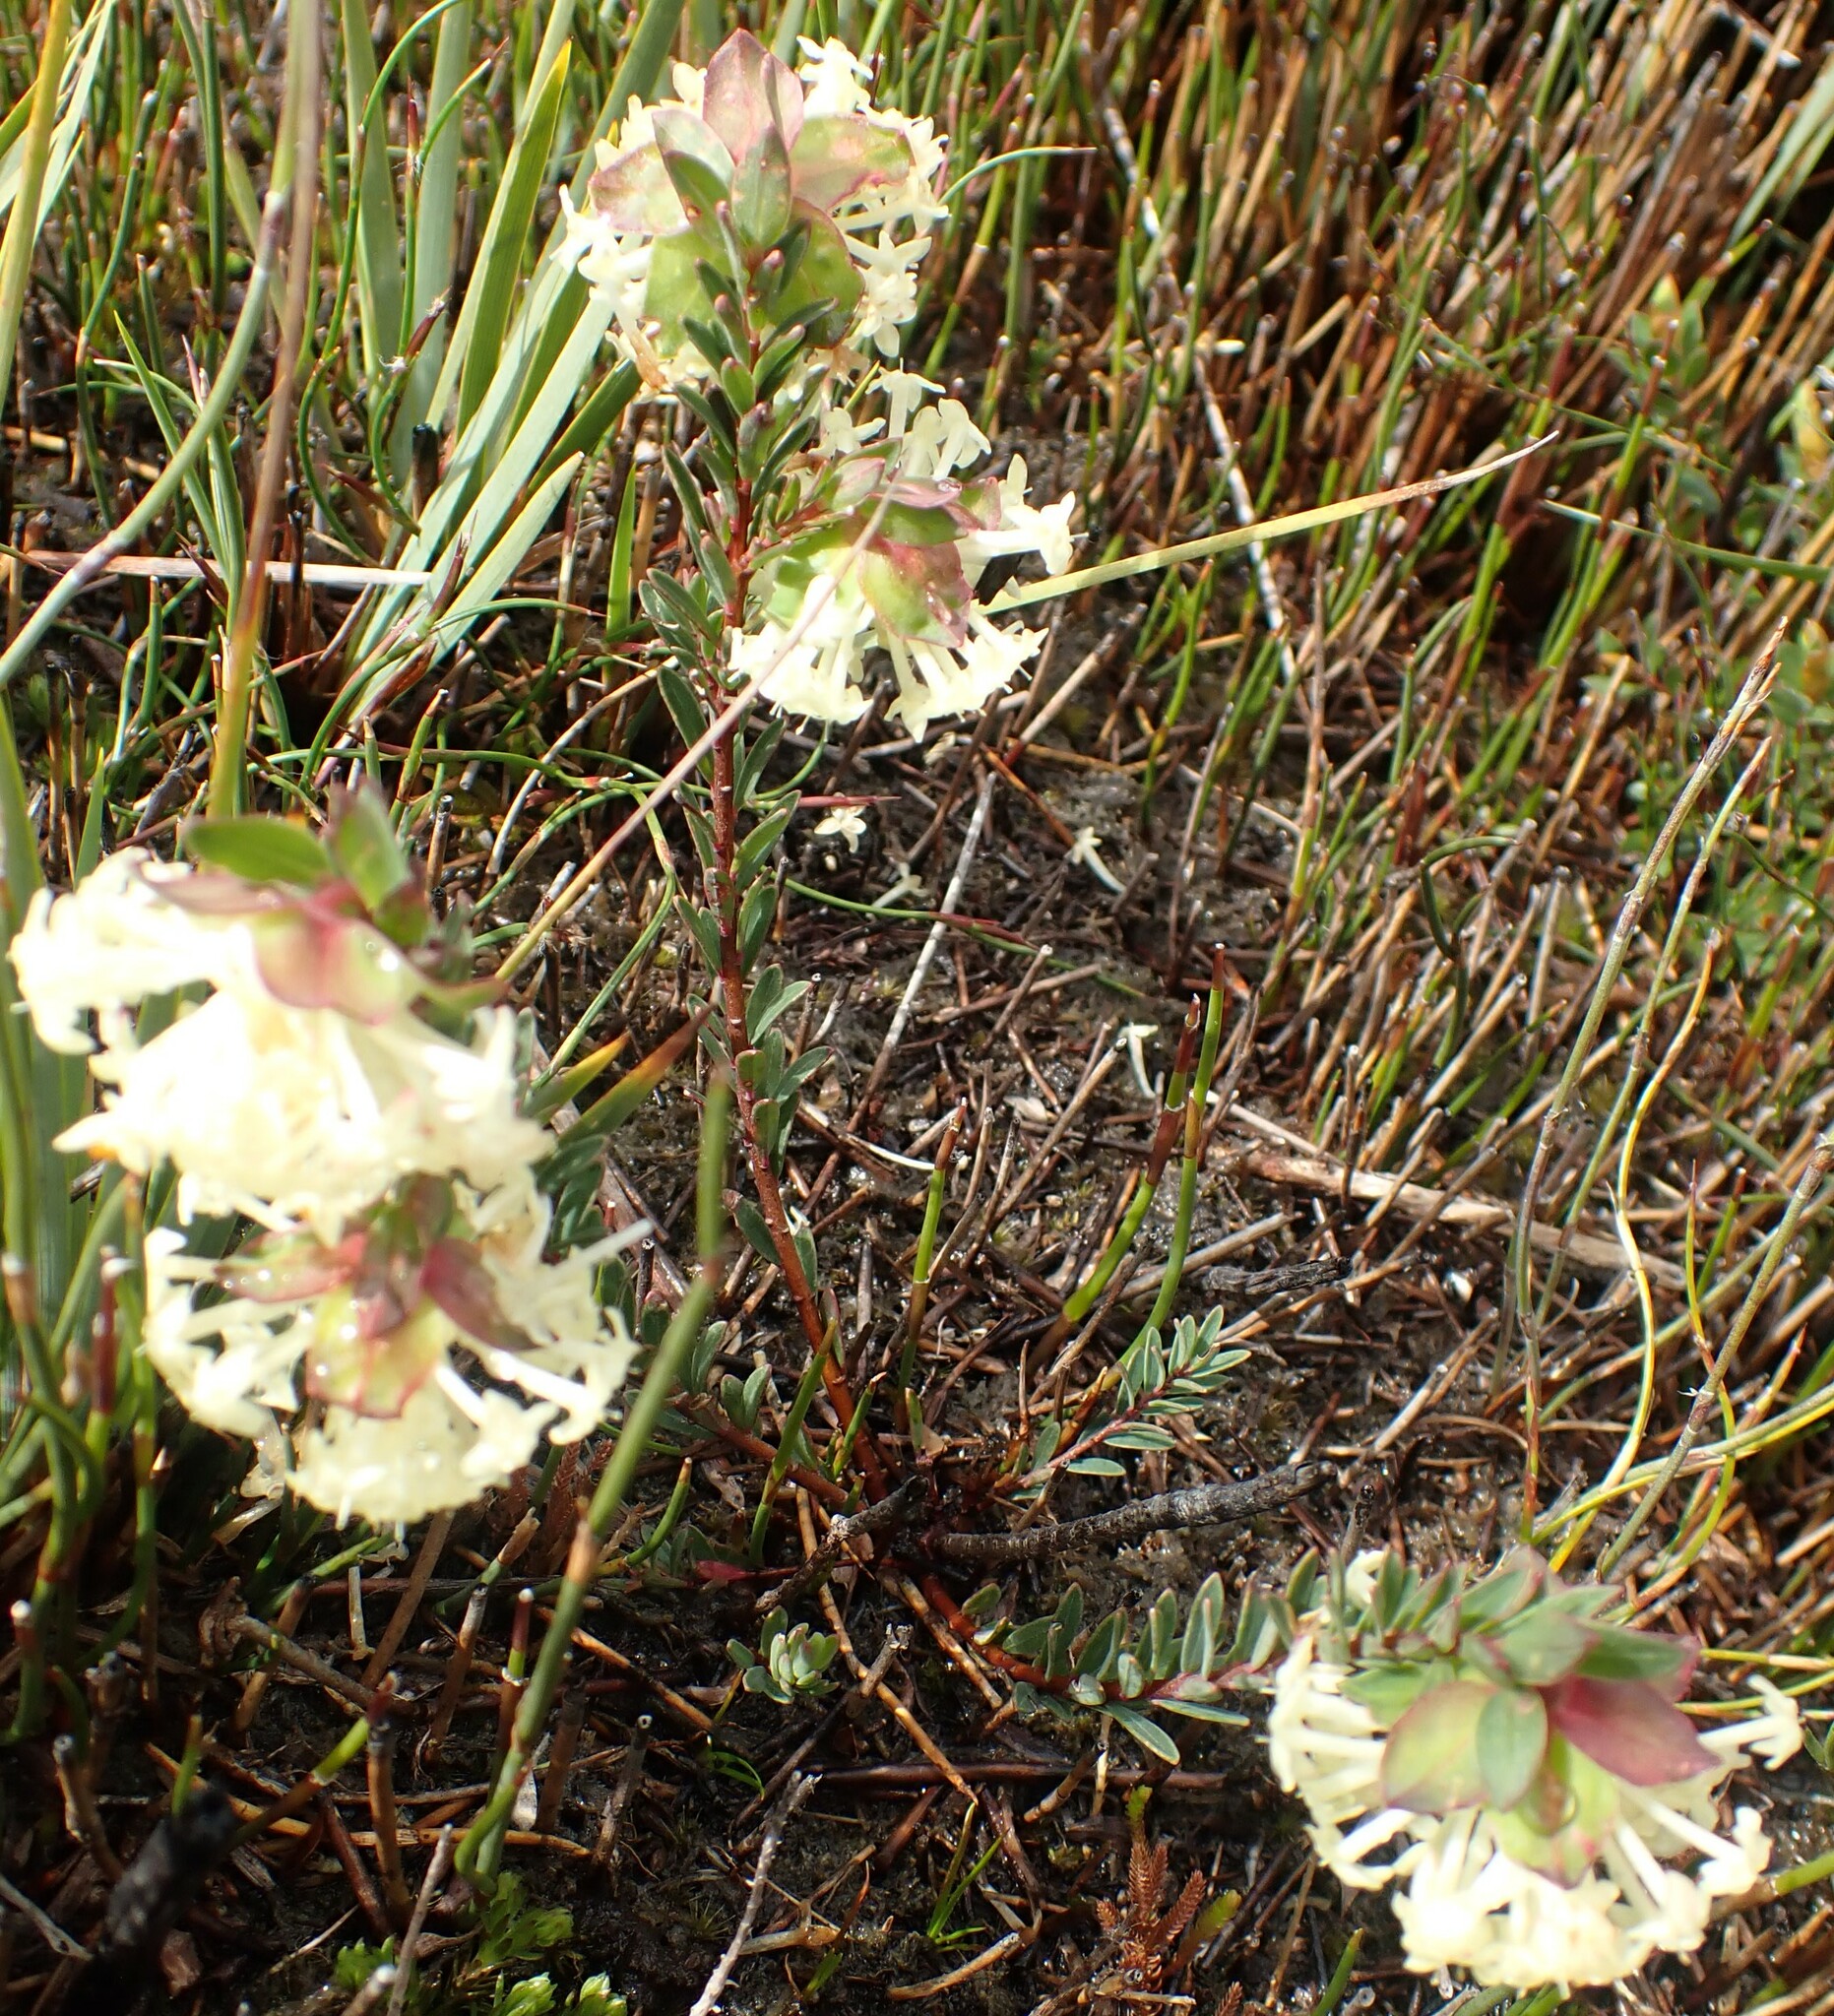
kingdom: Plantae
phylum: Tracheophyta
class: Magnoliopsida
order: Malvales
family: Thymelaeaceae
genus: Pimelea
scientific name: Pimelea linifolia
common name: Queen-of-the-bush
